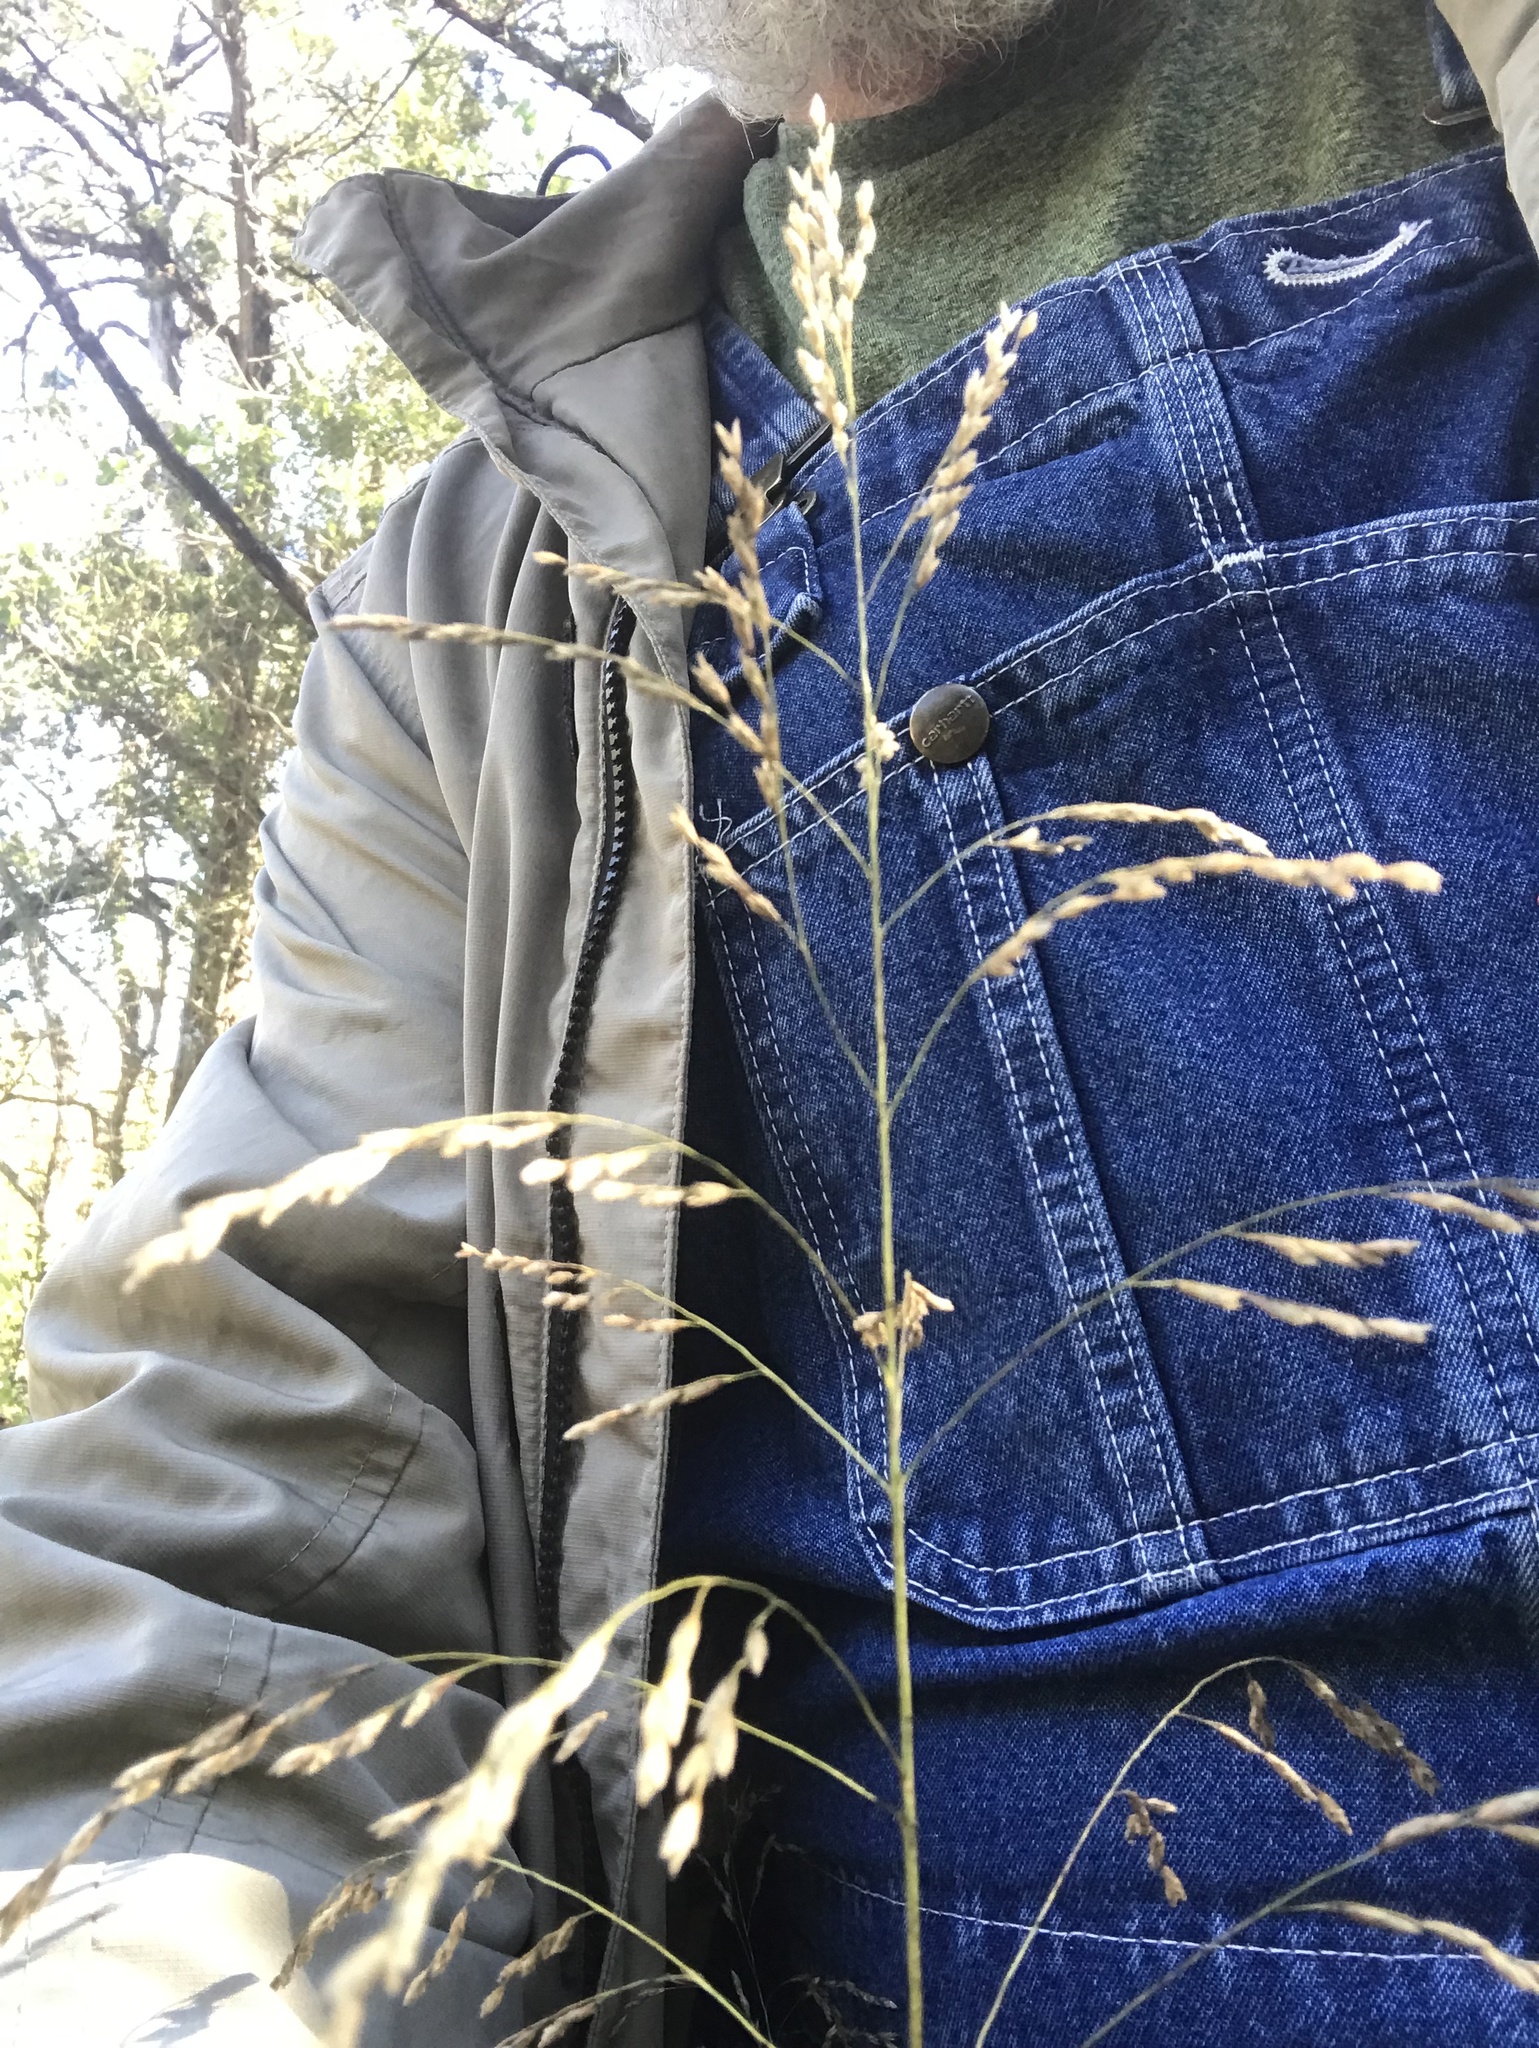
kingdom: Plantae
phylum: Tracheophyta
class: Liliopsida
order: Poales
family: Poaceae
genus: Tridens
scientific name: Tridens flavus
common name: Purpletop
